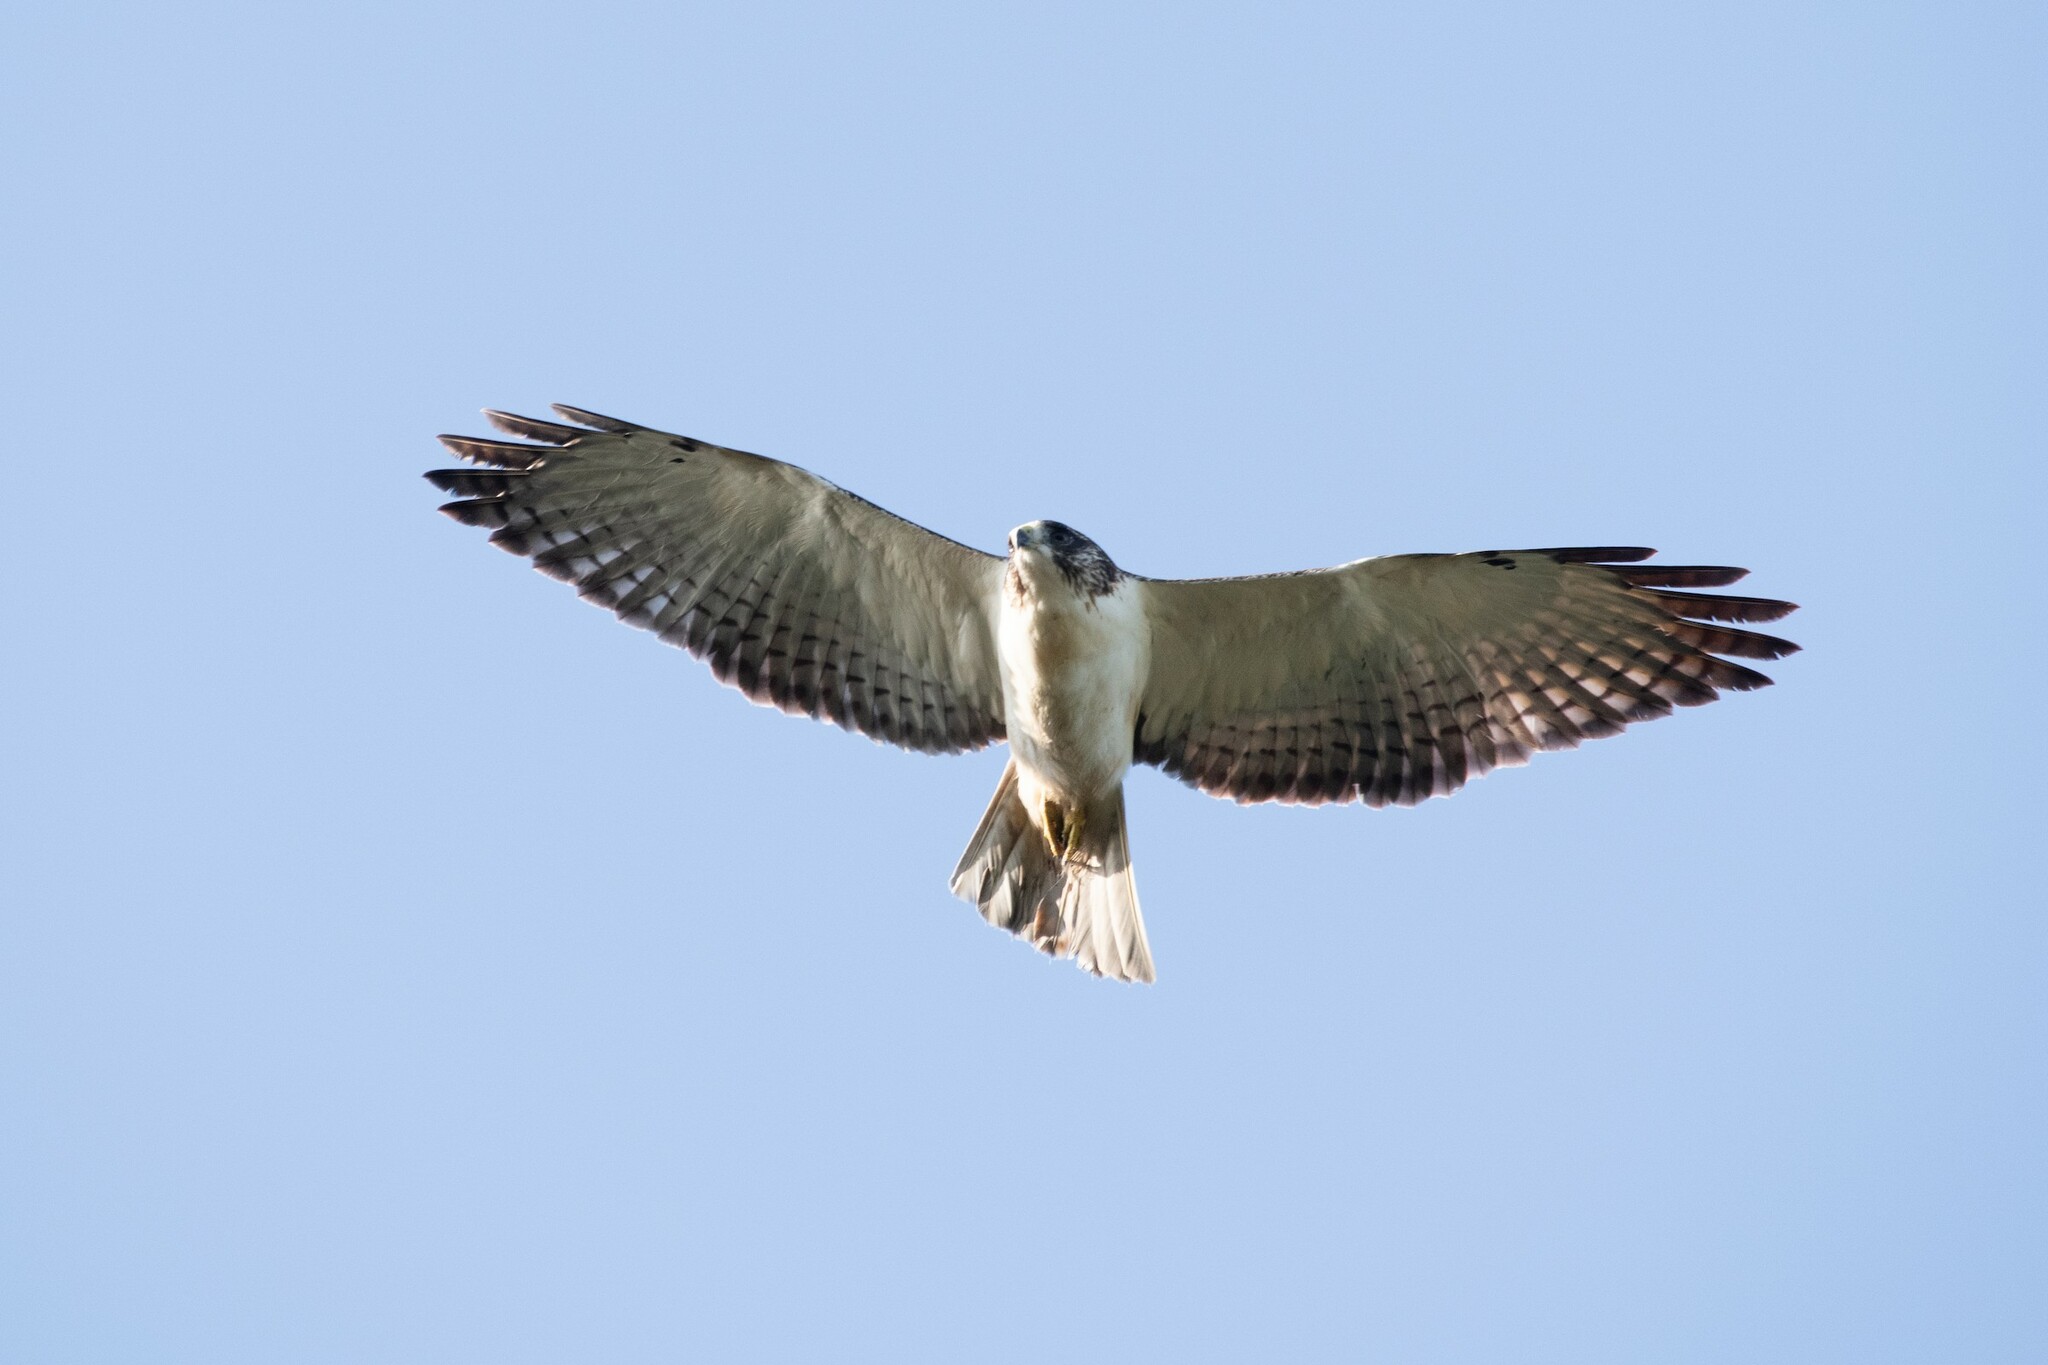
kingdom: Animalia
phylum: Chordata
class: Aves
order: Accipitriformes
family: Accipitridae
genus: Buteo
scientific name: Buteo brachyurus
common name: Short-tailed hawk
